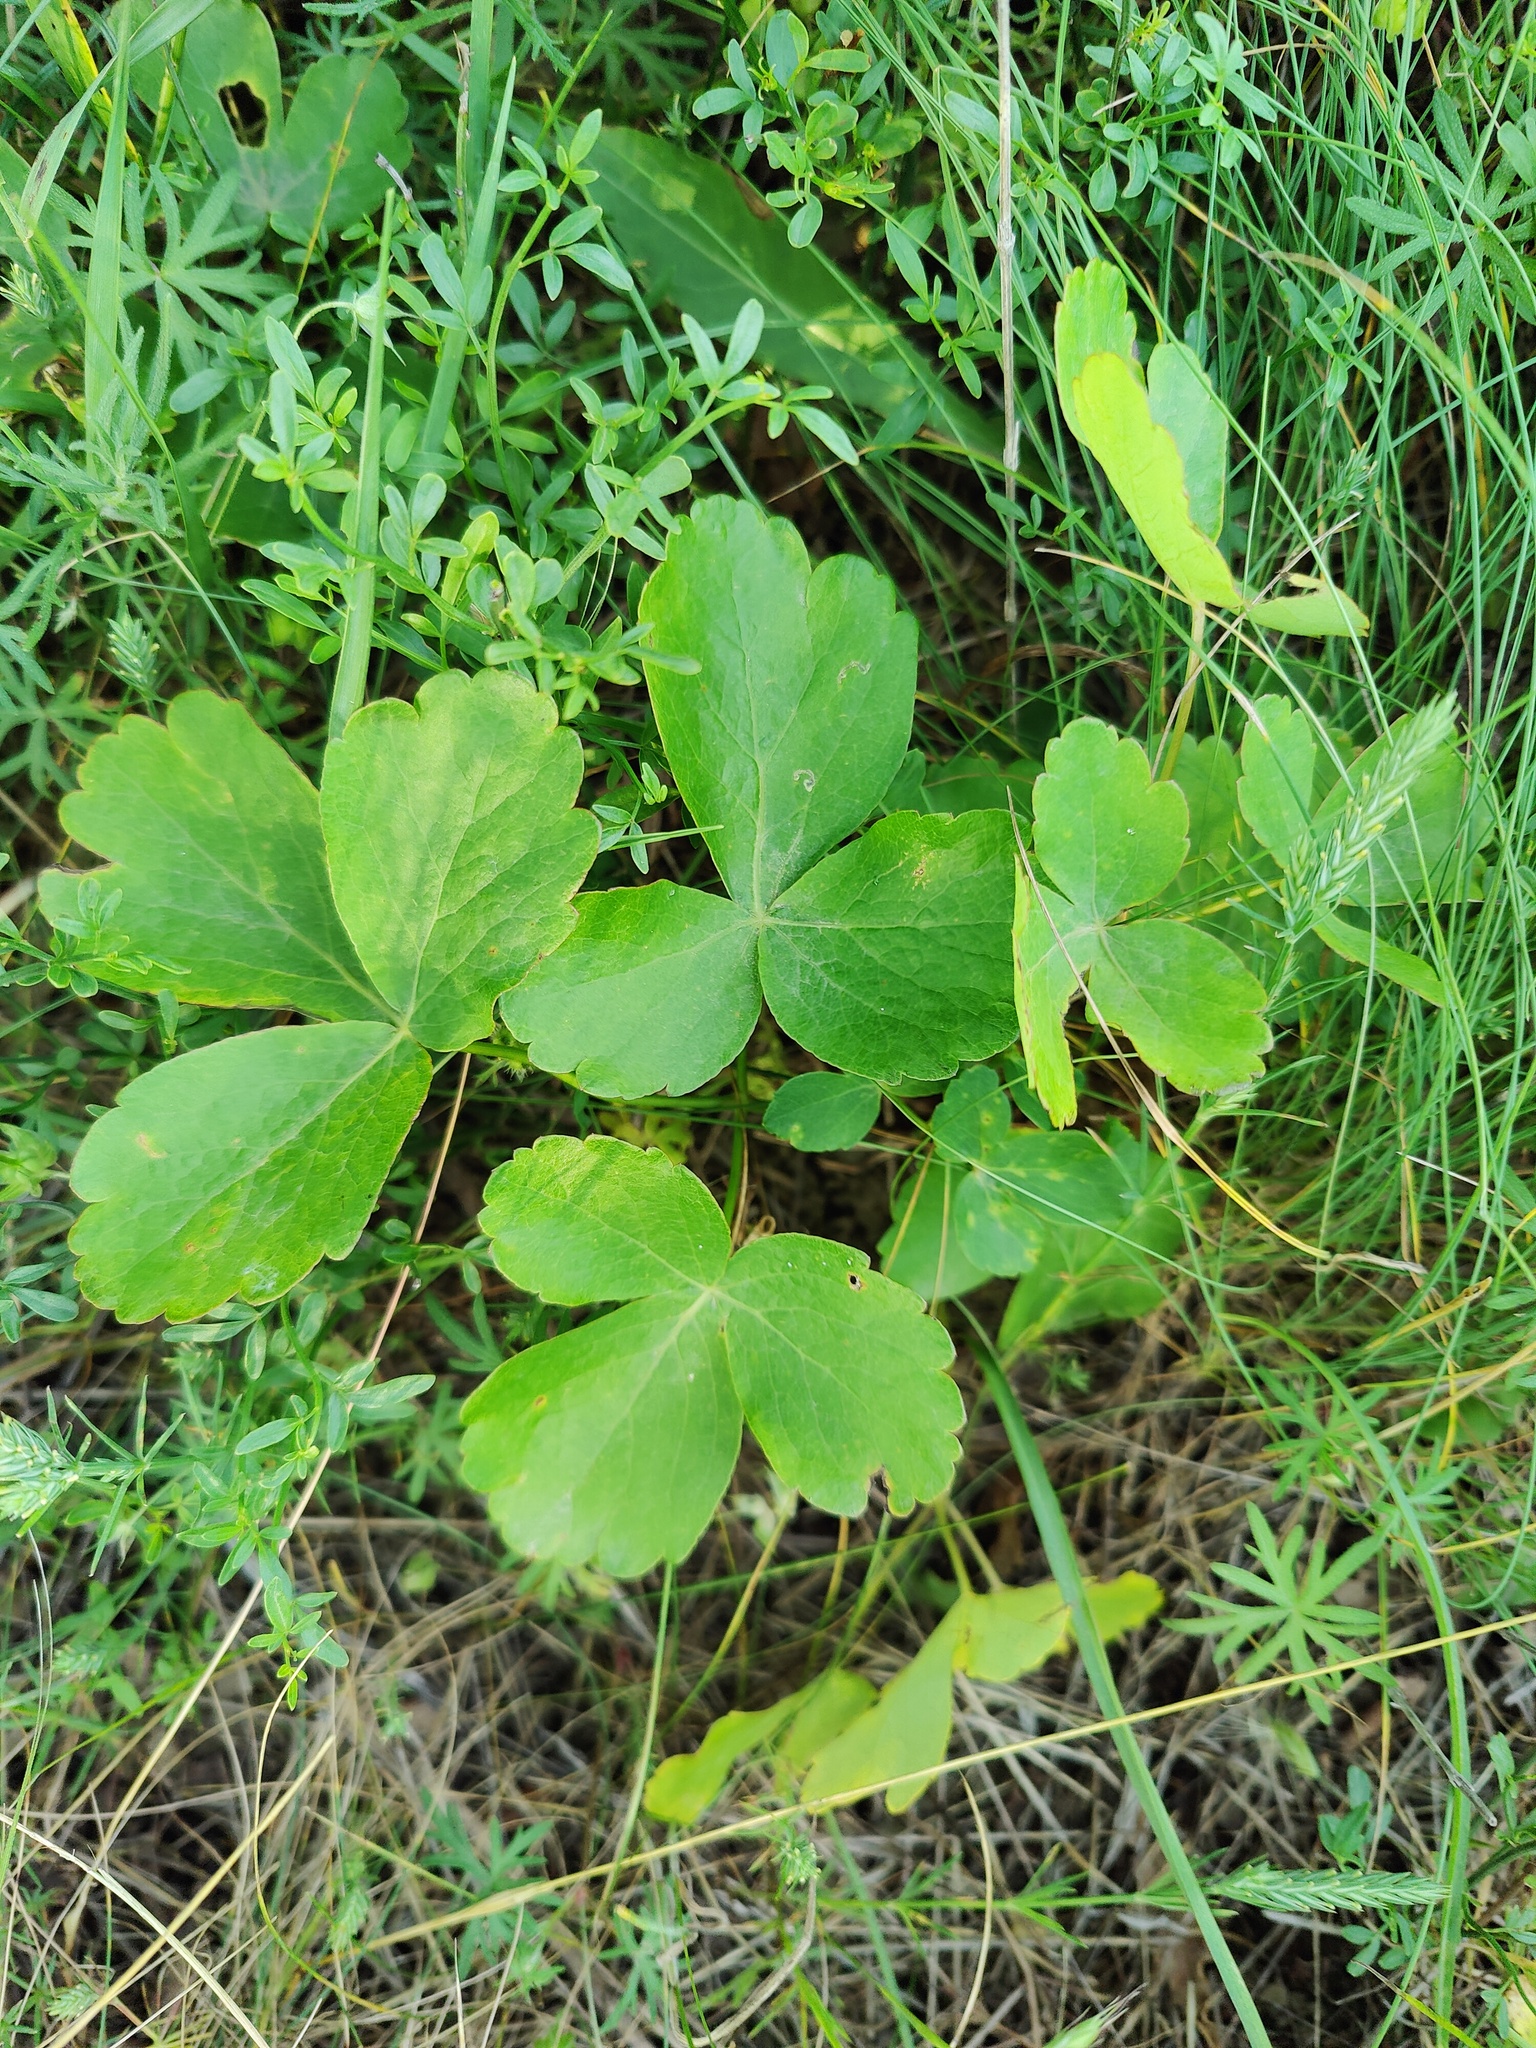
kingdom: Plantae
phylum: Tracheophyta
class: Magnoliopsida
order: Apiales
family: Apiaceae
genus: Laser
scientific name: Laser trilobum
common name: Laser
